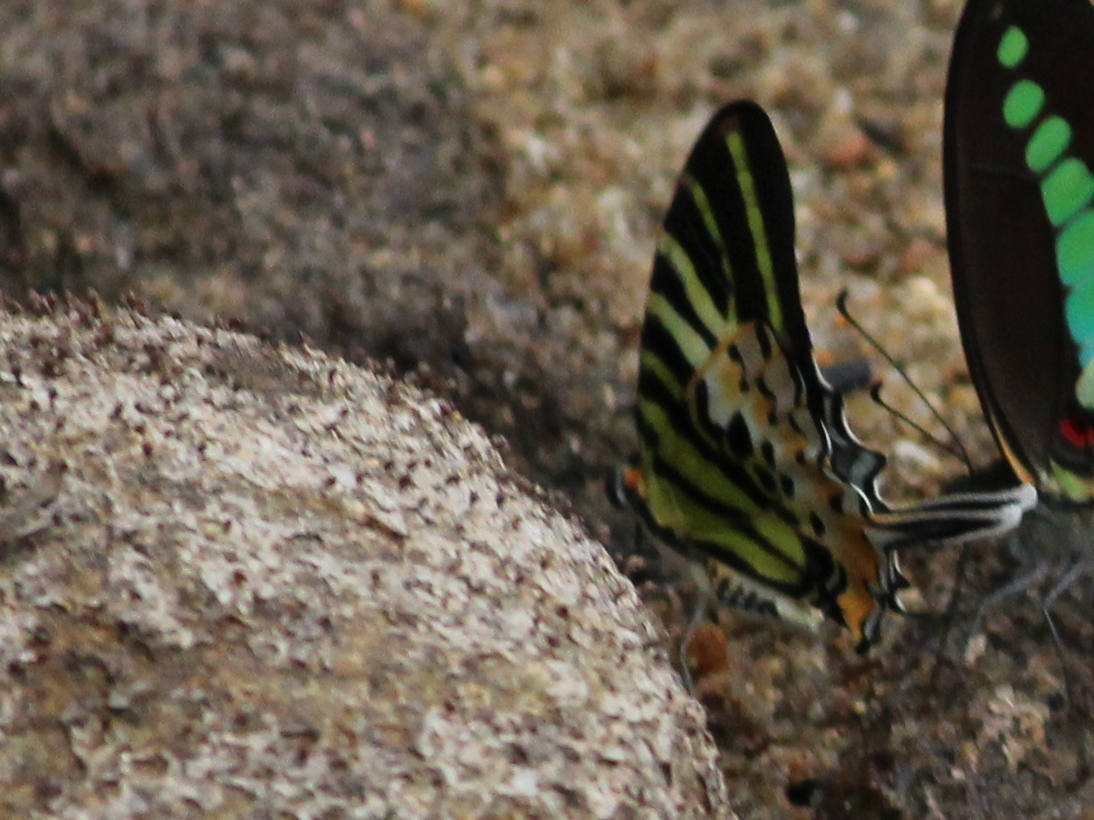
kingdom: Animalia
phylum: Arthropoda
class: Insecta
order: Lepidoptera
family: Papilionidae
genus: Graphium
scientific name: Graphium antiphates
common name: Fivebar swordtail
